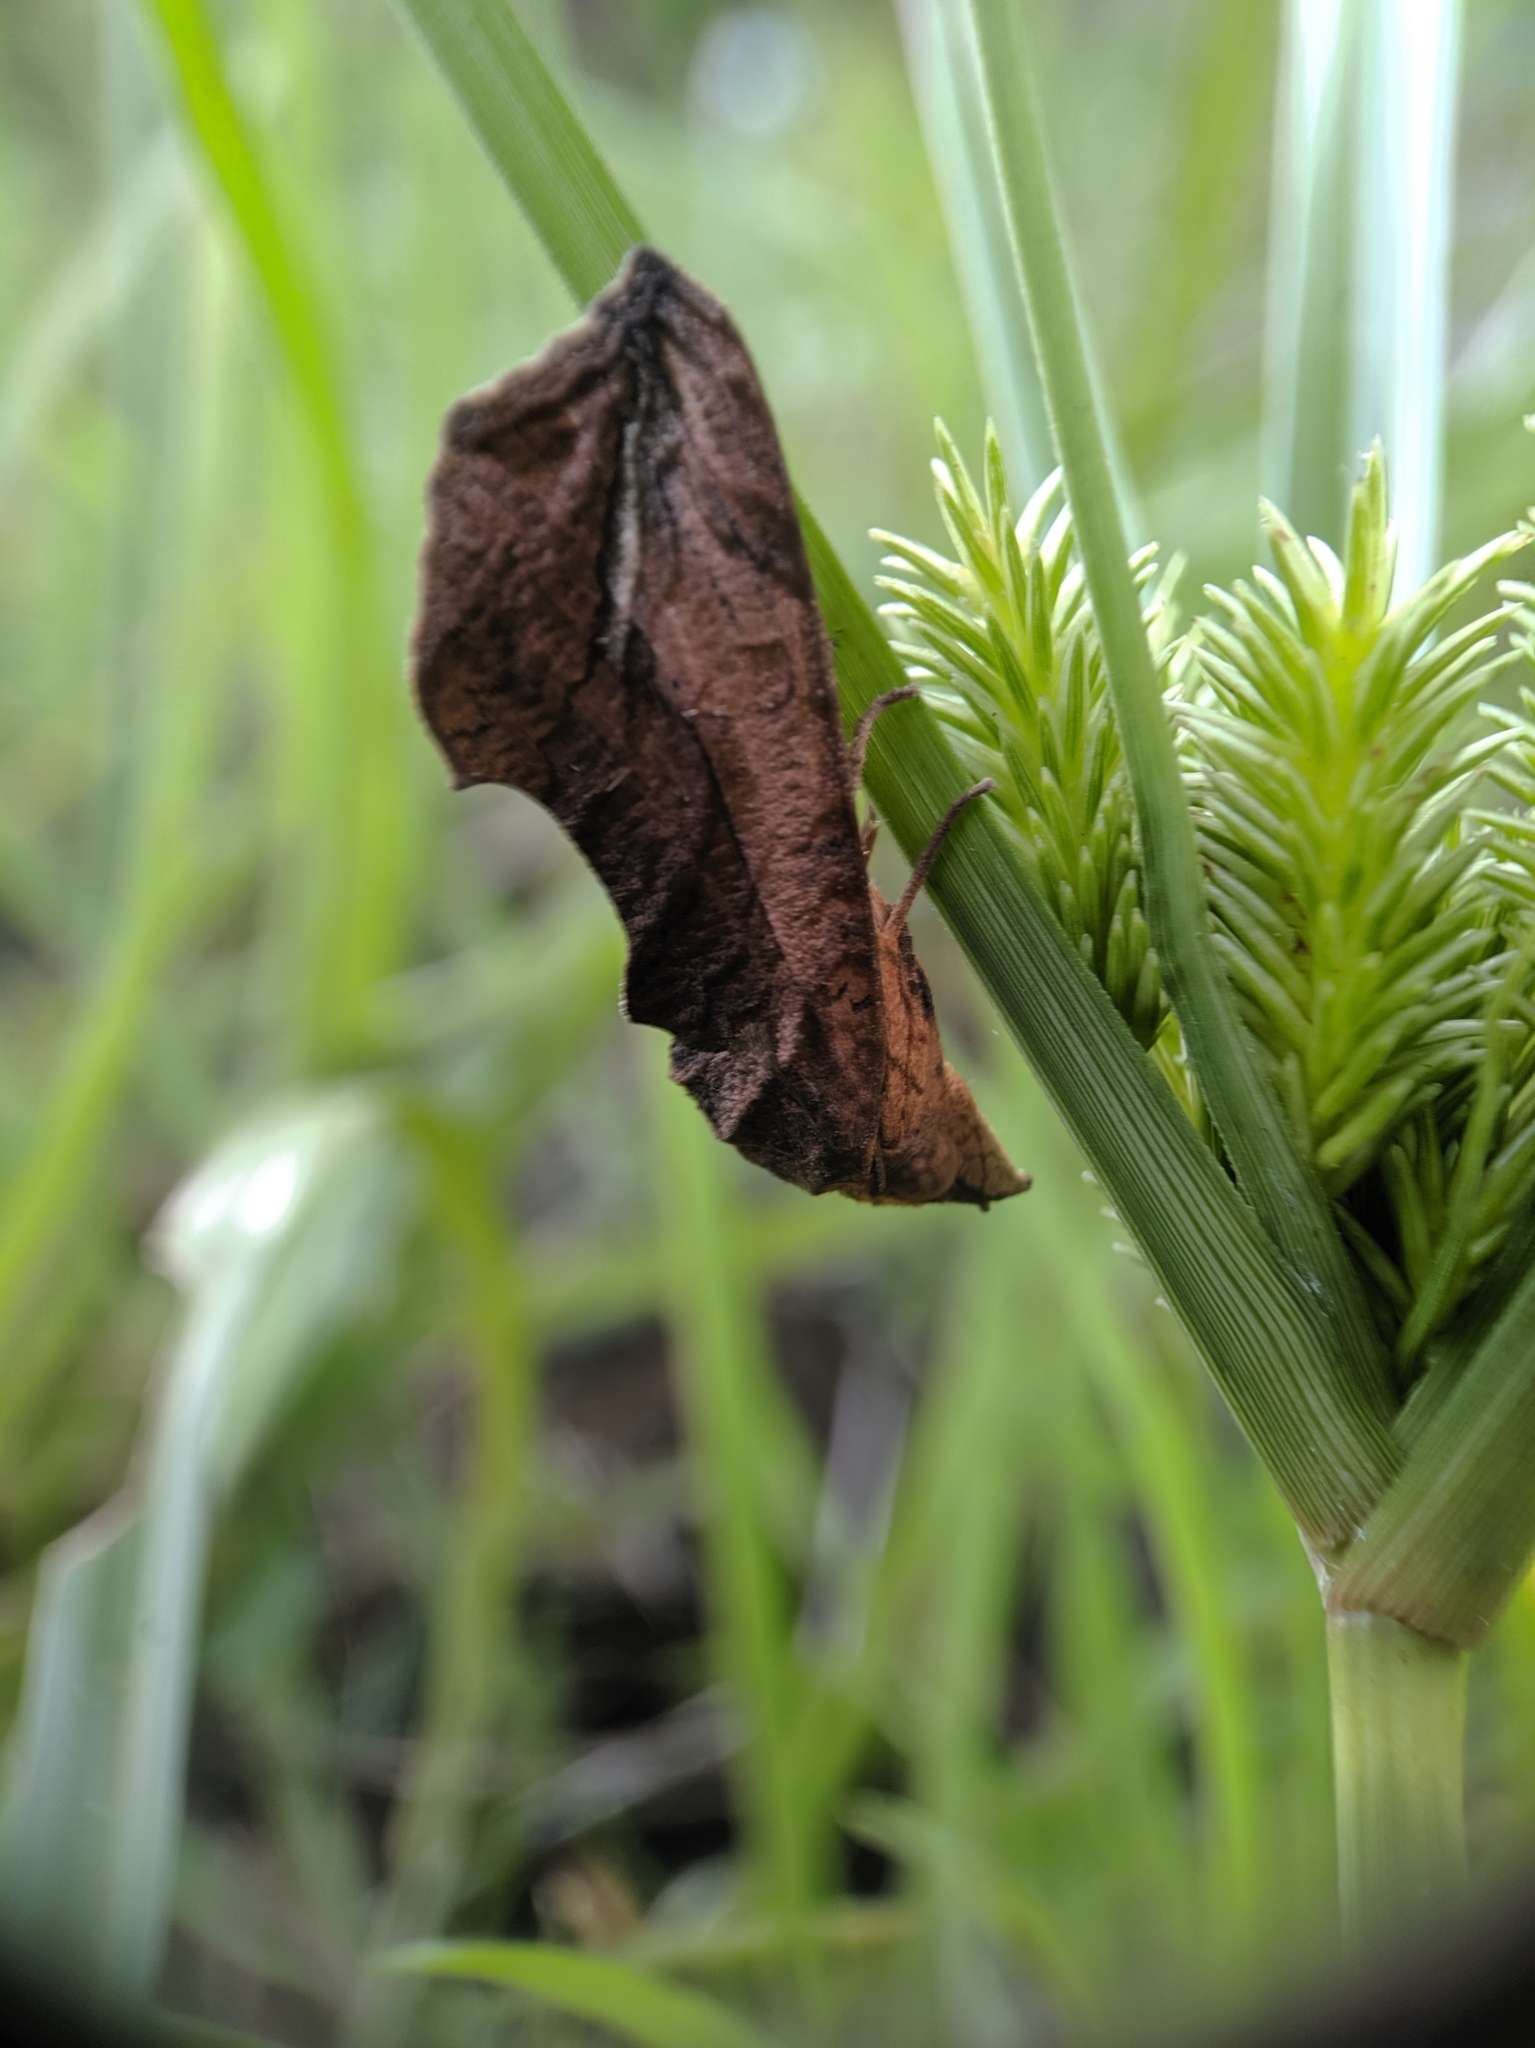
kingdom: Animalia
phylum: Arthropoda
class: Insecta
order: Lepidoptera
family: Erebidae
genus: Oraesia
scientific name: Oraesia emarginata
